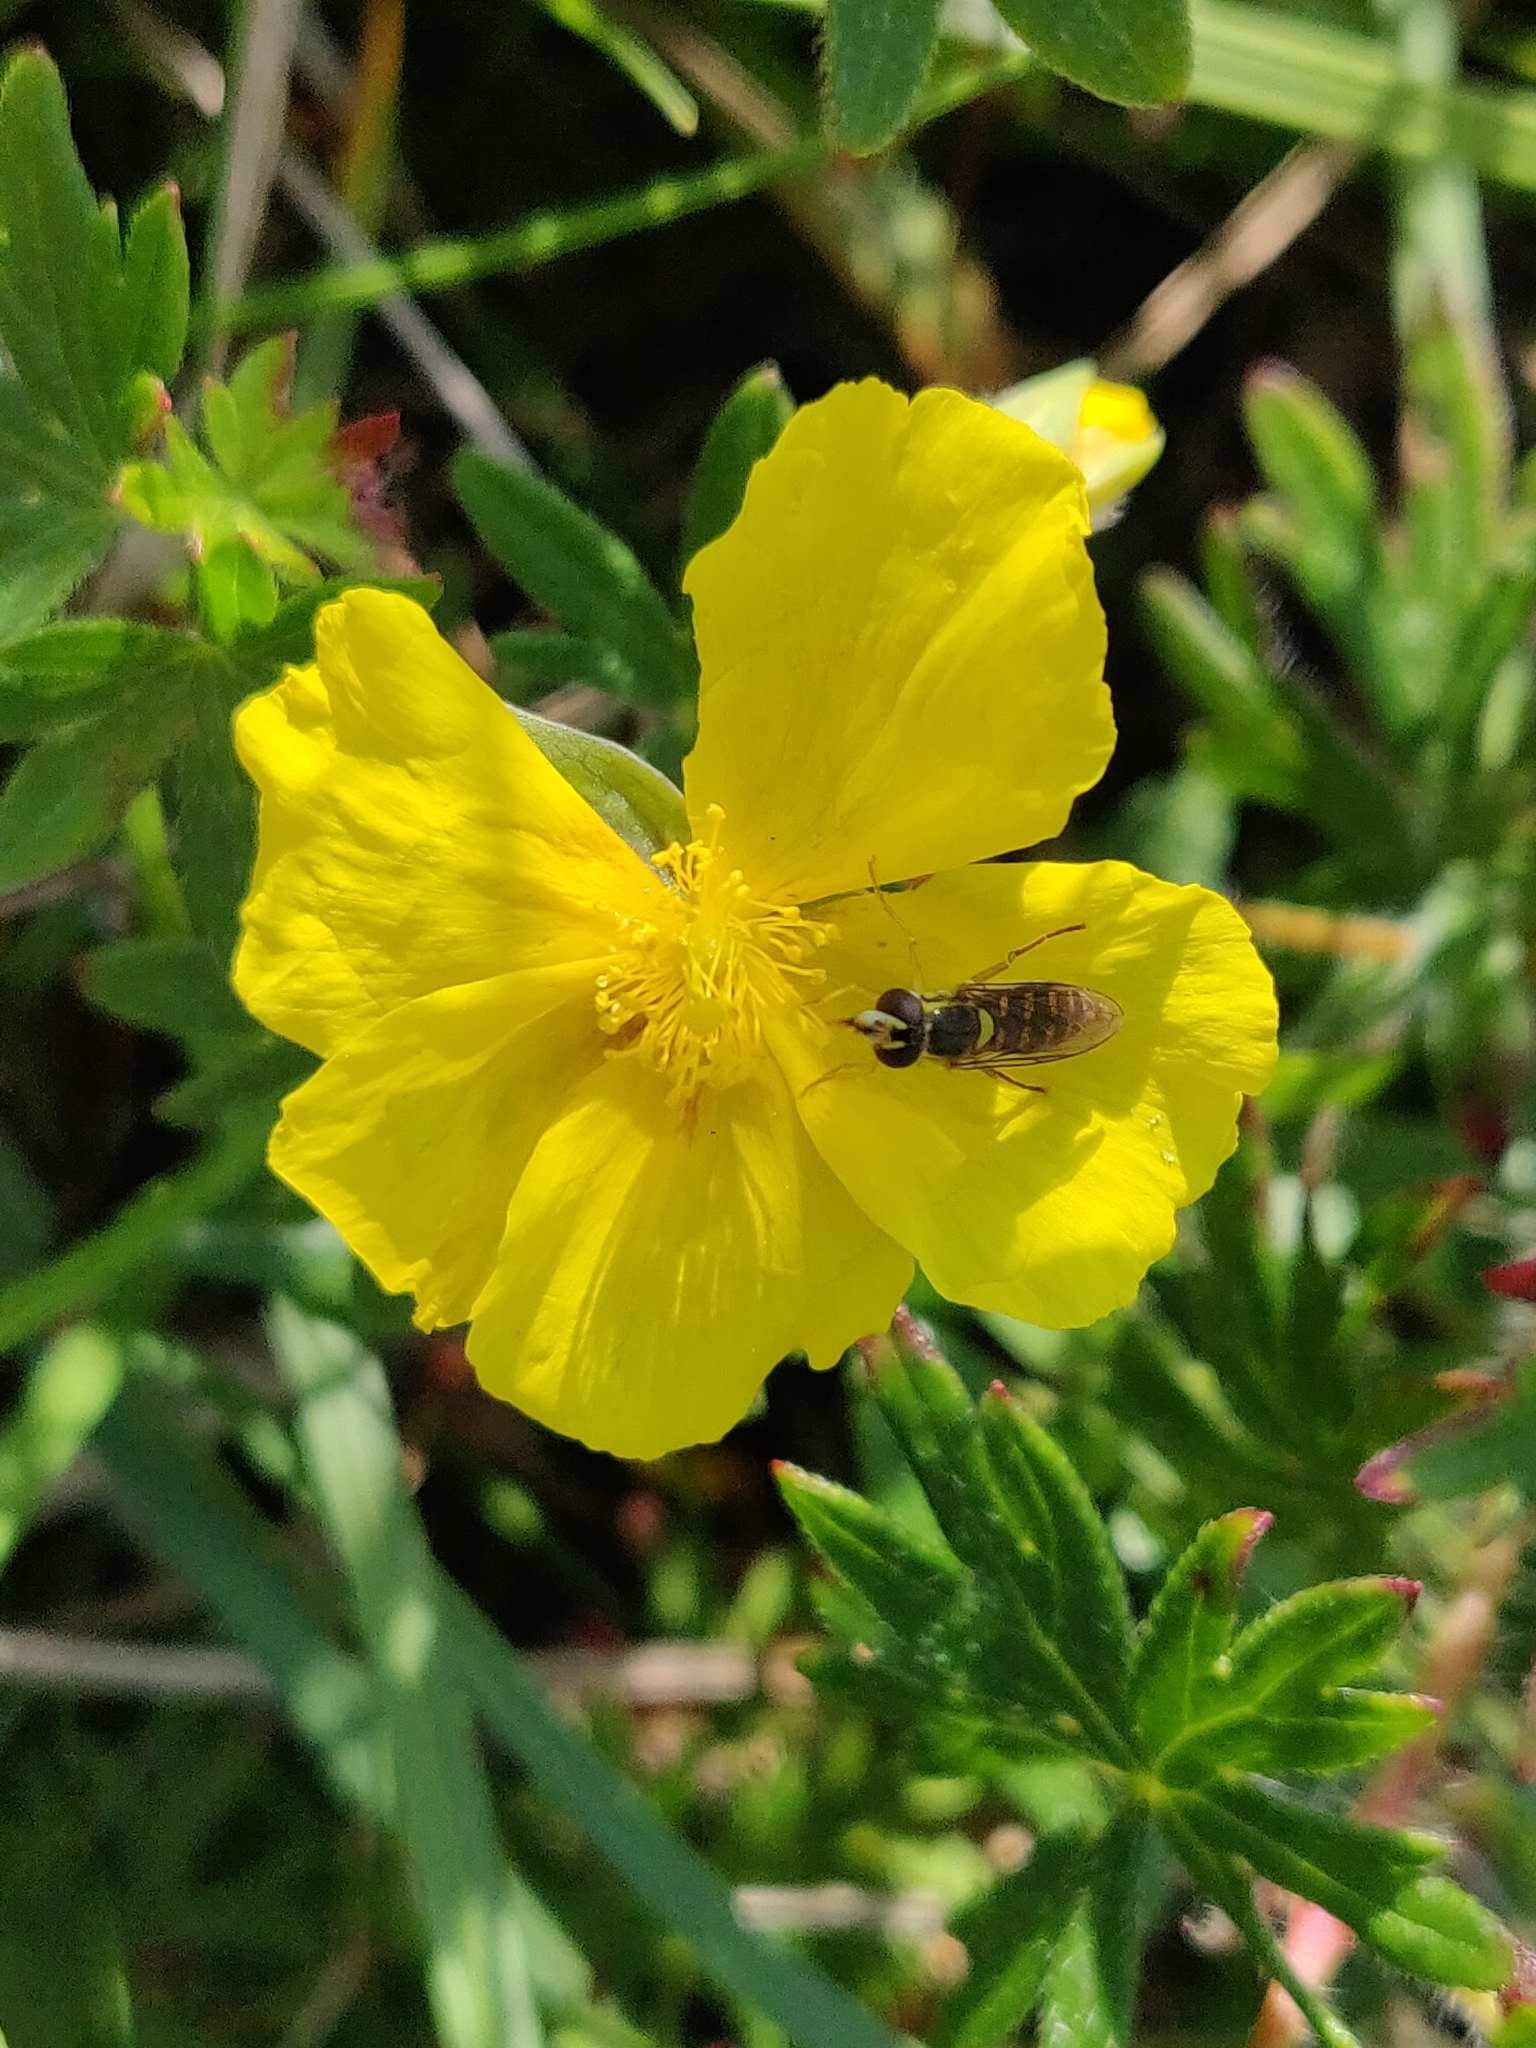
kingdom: Plantae
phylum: Tracheophyta
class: Magnoliopsida
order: Malvales
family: Cistaceae
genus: Helianthemum
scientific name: Helianthemum nummularium
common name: Common rock-rose
